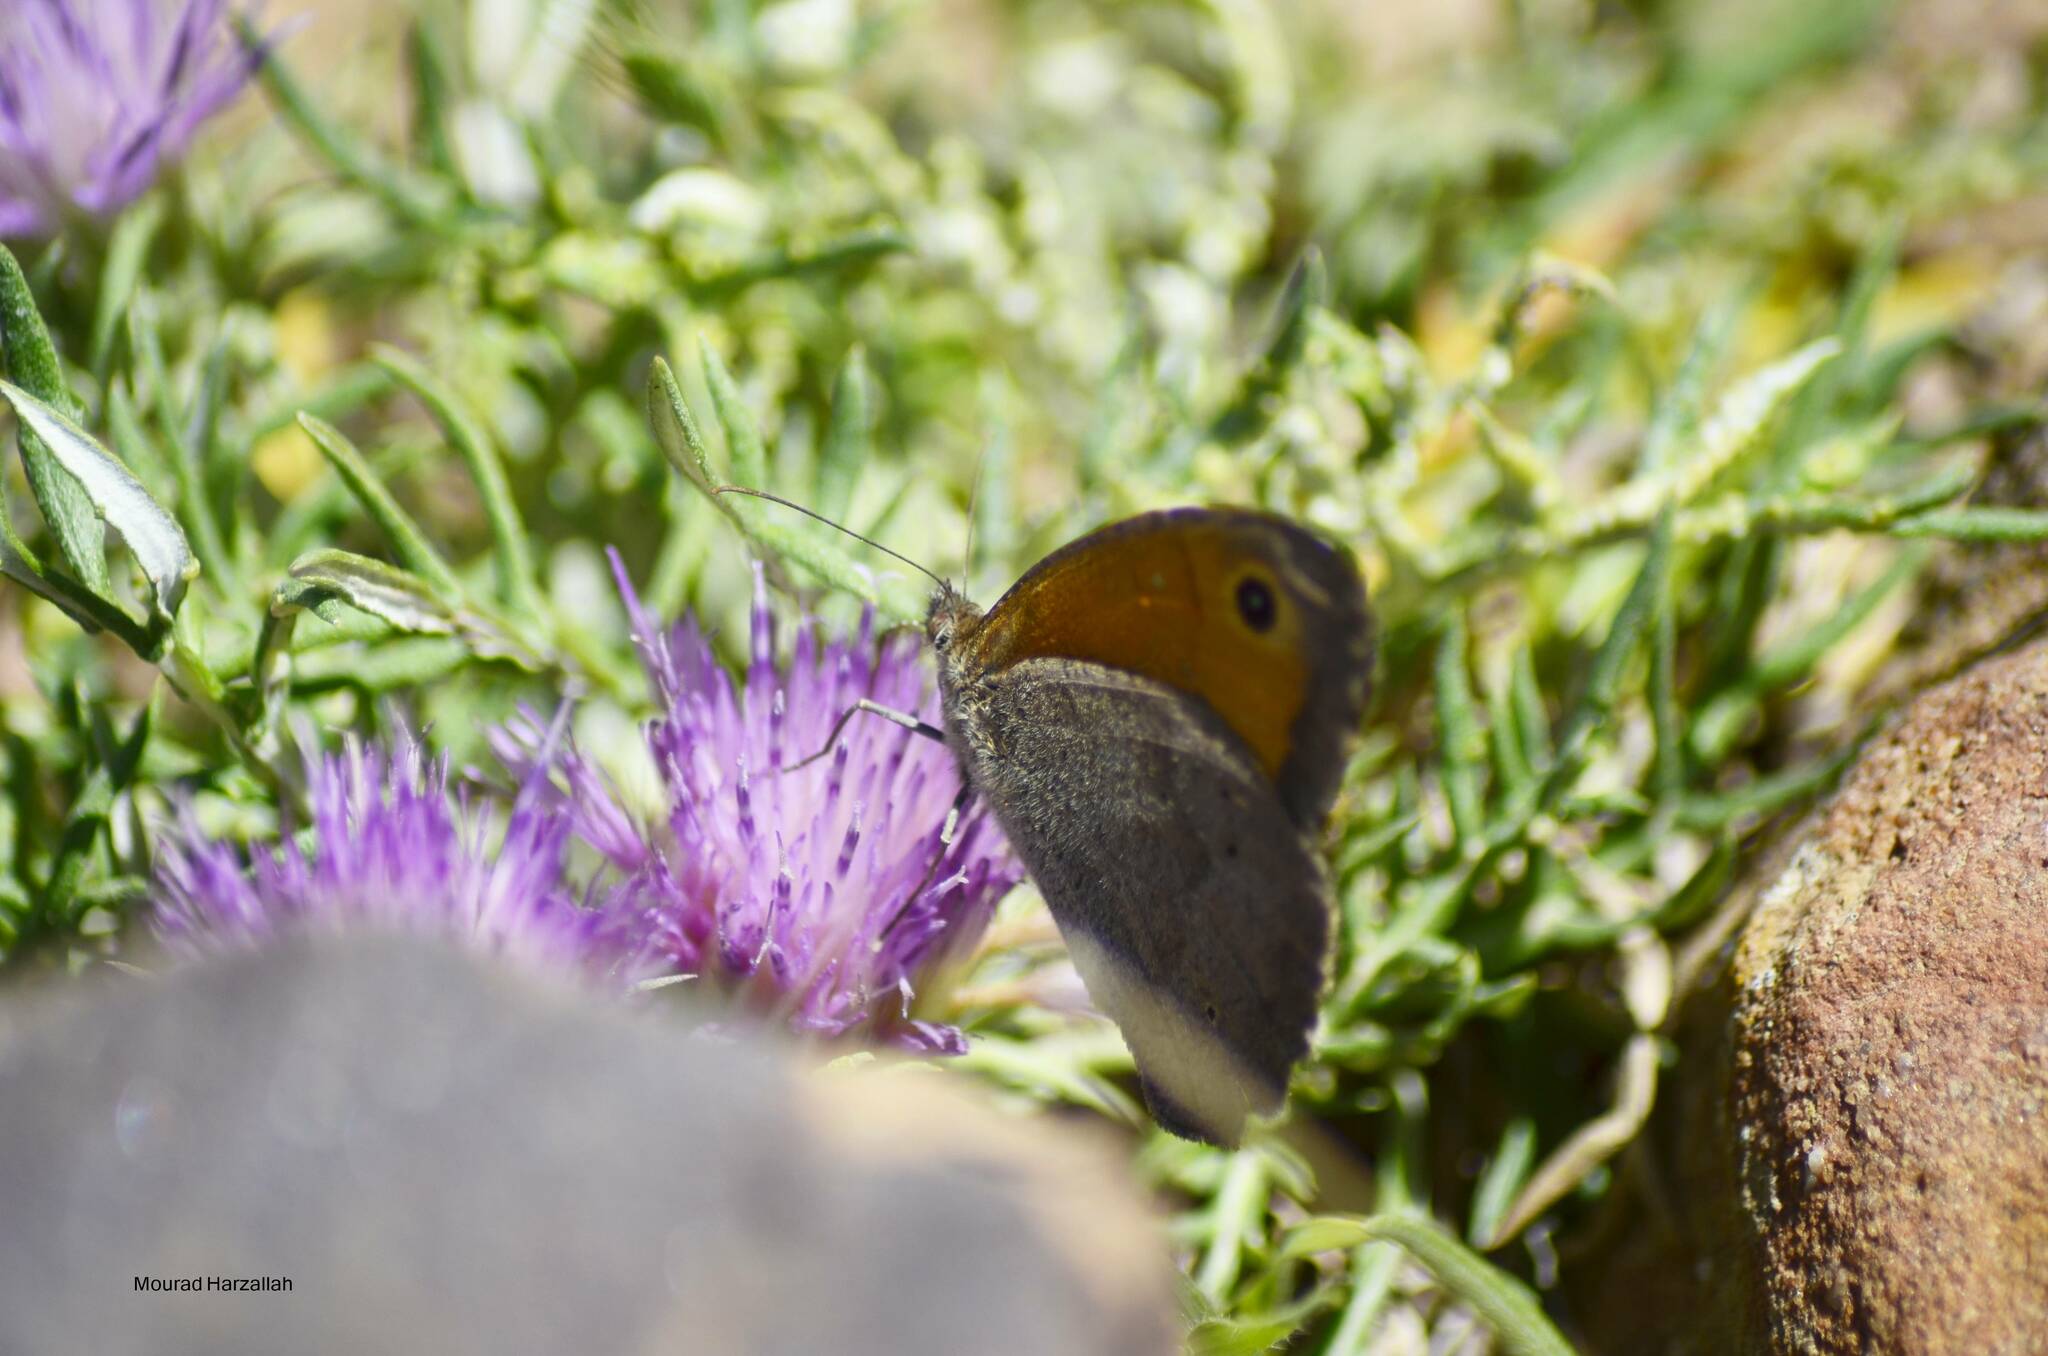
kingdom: Animalia
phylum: Arthropoda
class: Insecta
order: Lepidoptera
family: Nymphalidae
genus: Maniola
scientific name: Maniola jurtina
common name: Meadow brown
